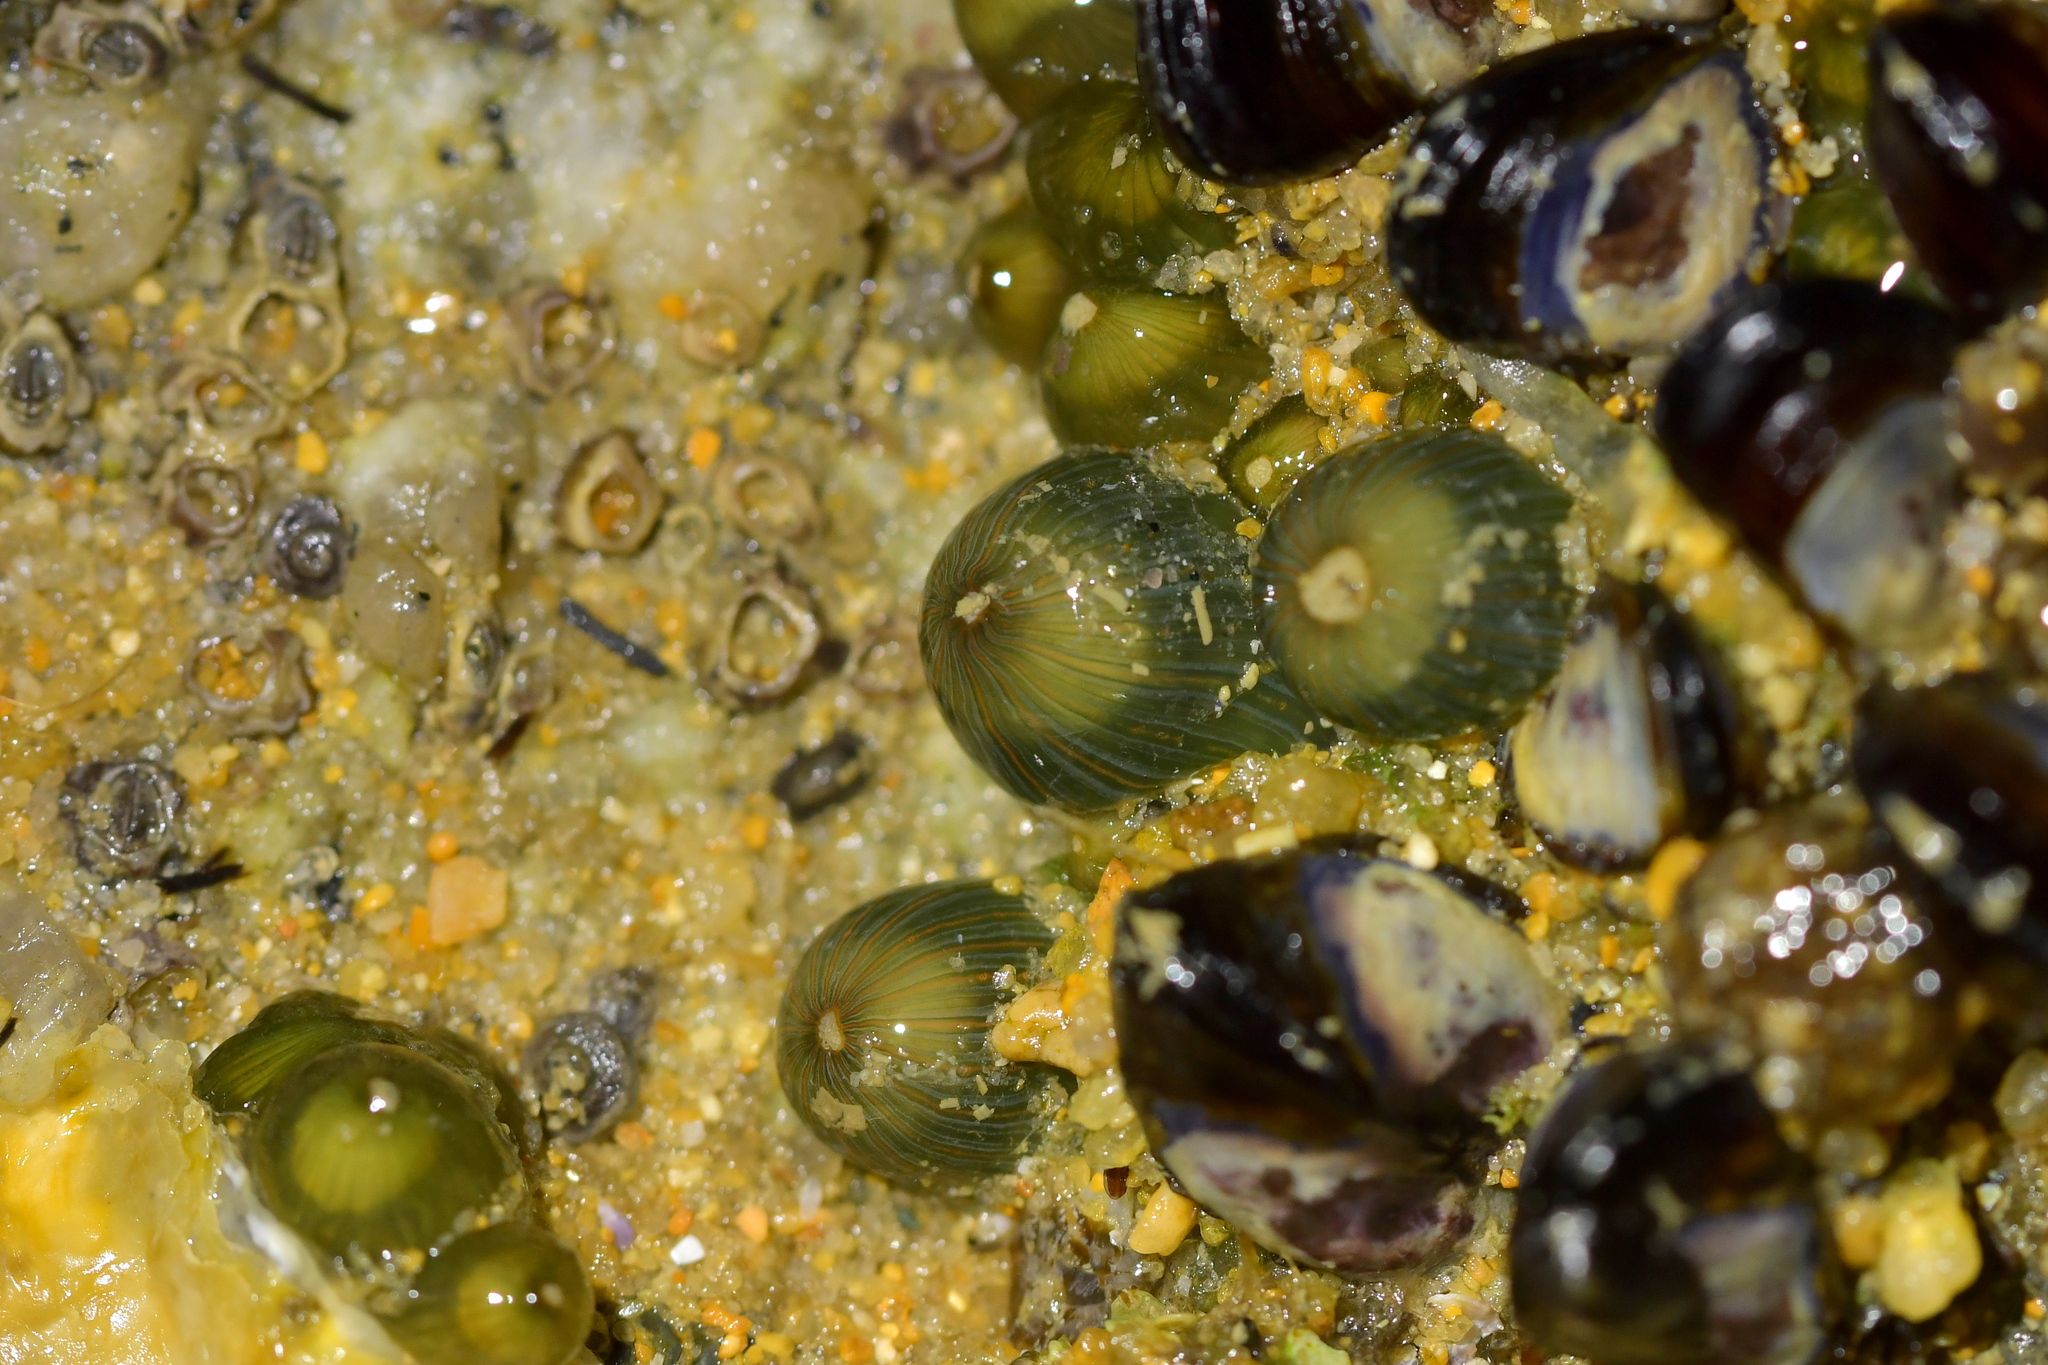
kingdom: Animalia
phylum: Cnidaria
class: Anthozoa
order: Actiniaria
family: Diadumenidae
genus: Diadumene
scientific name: Diadumene lineata
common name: Orange-striped anemone
